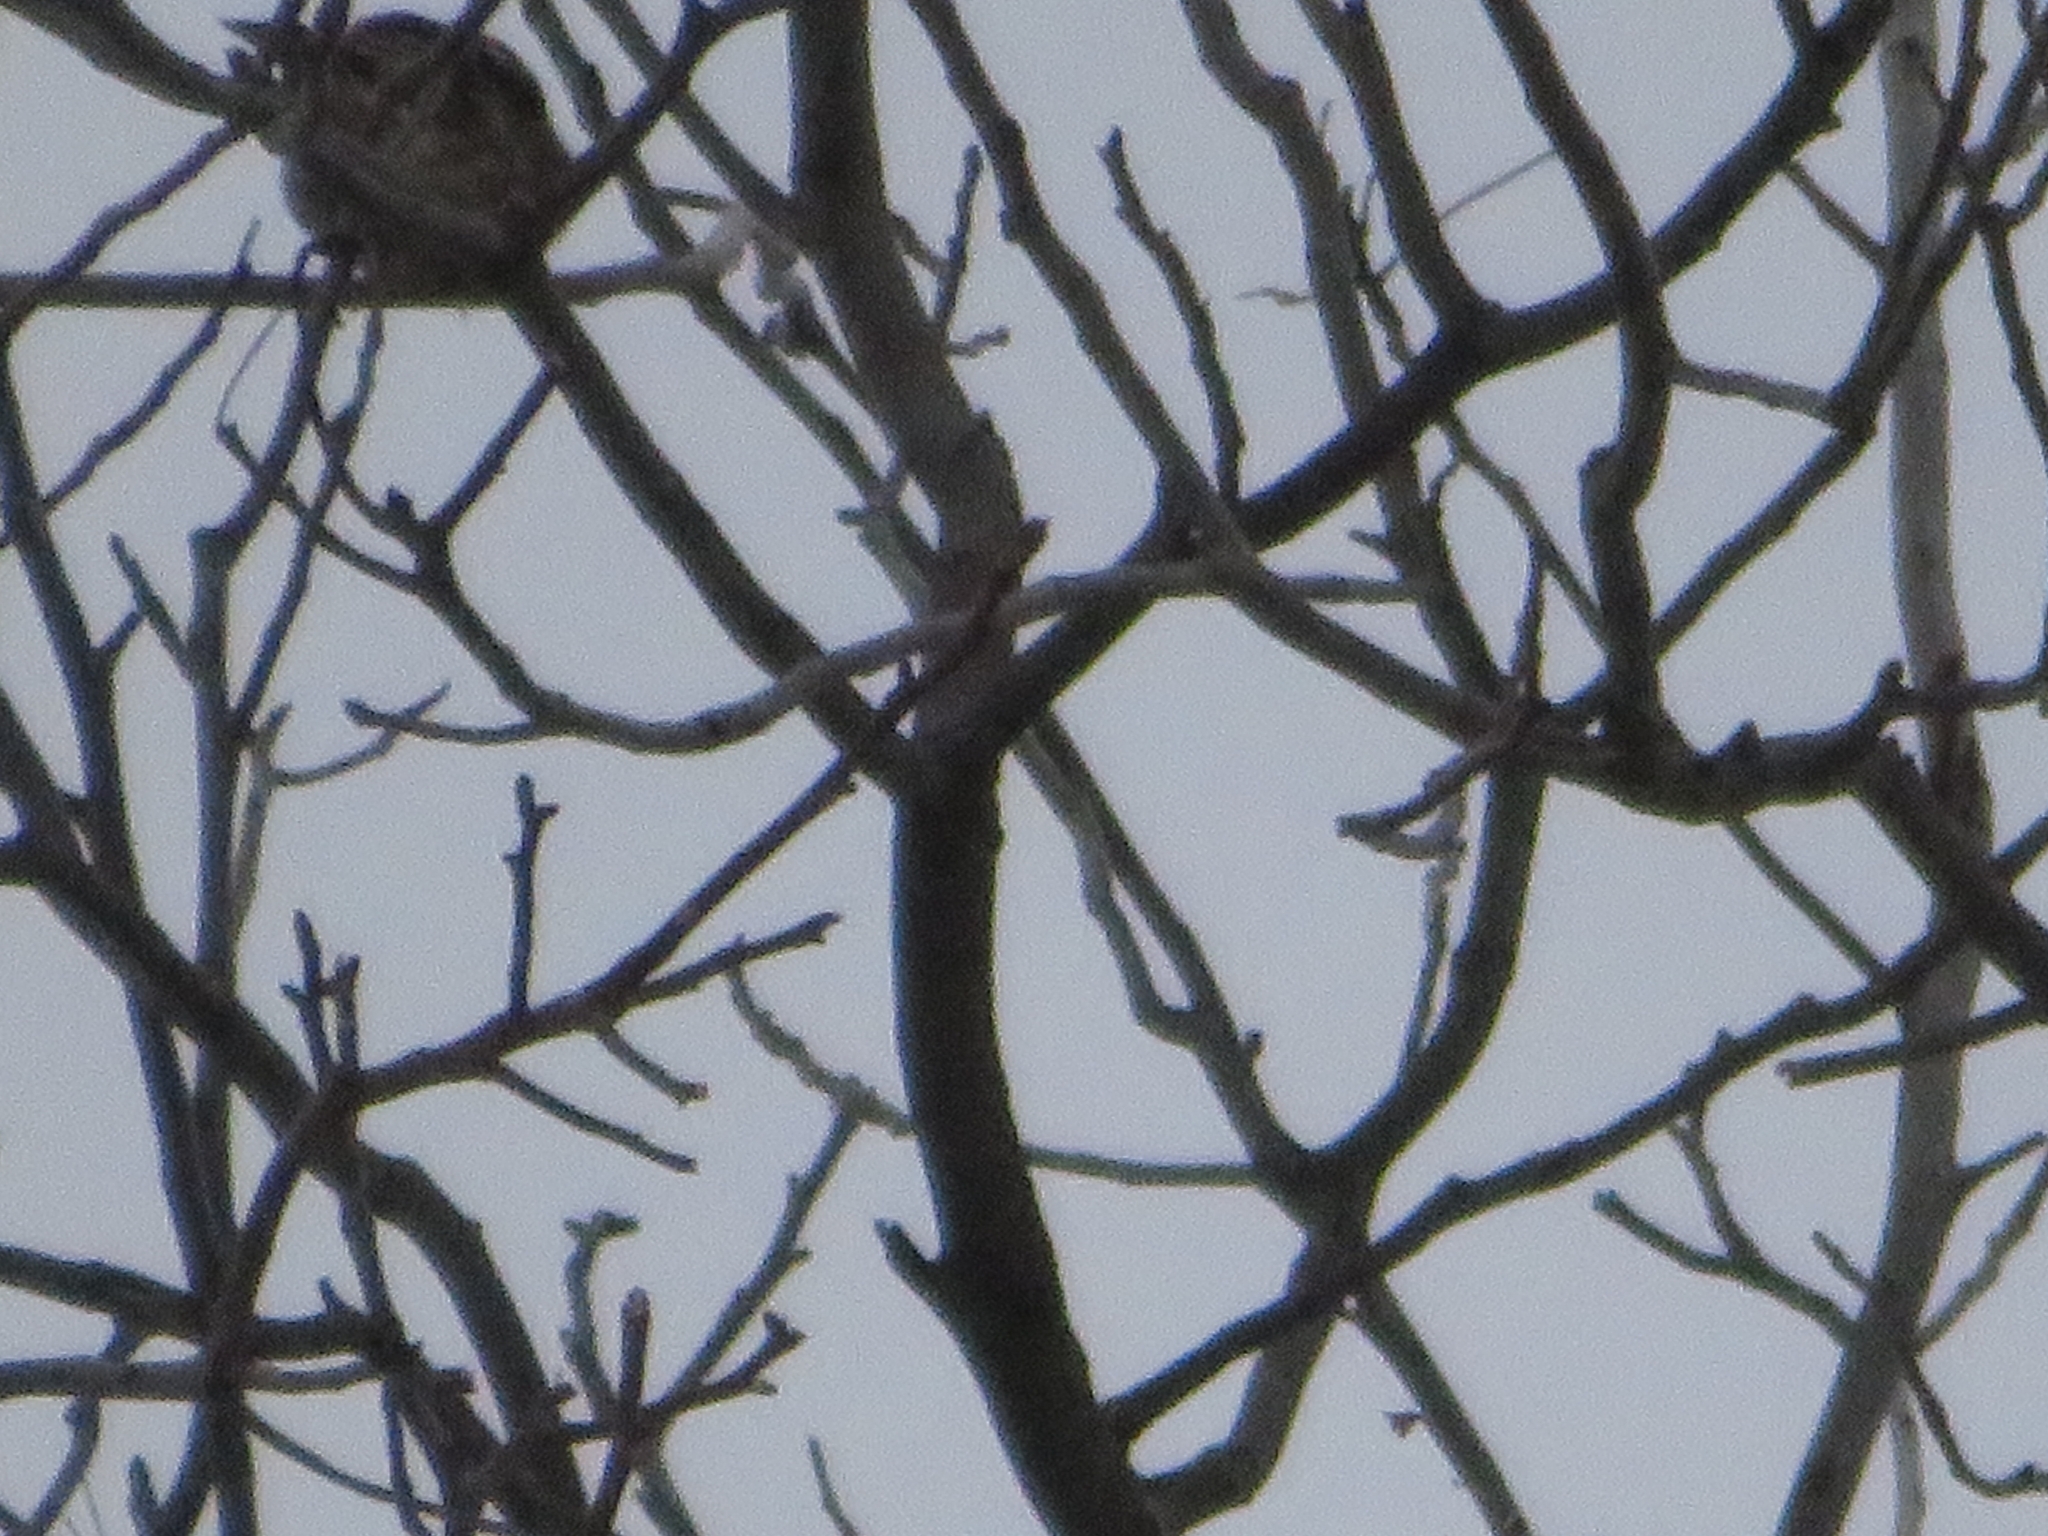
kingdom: Animalia
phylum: Chordata
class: Aves
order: Passeriformes
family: Fringillidae
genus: Haemorhous
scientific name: Haemorhous mexicanus
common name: House finch
